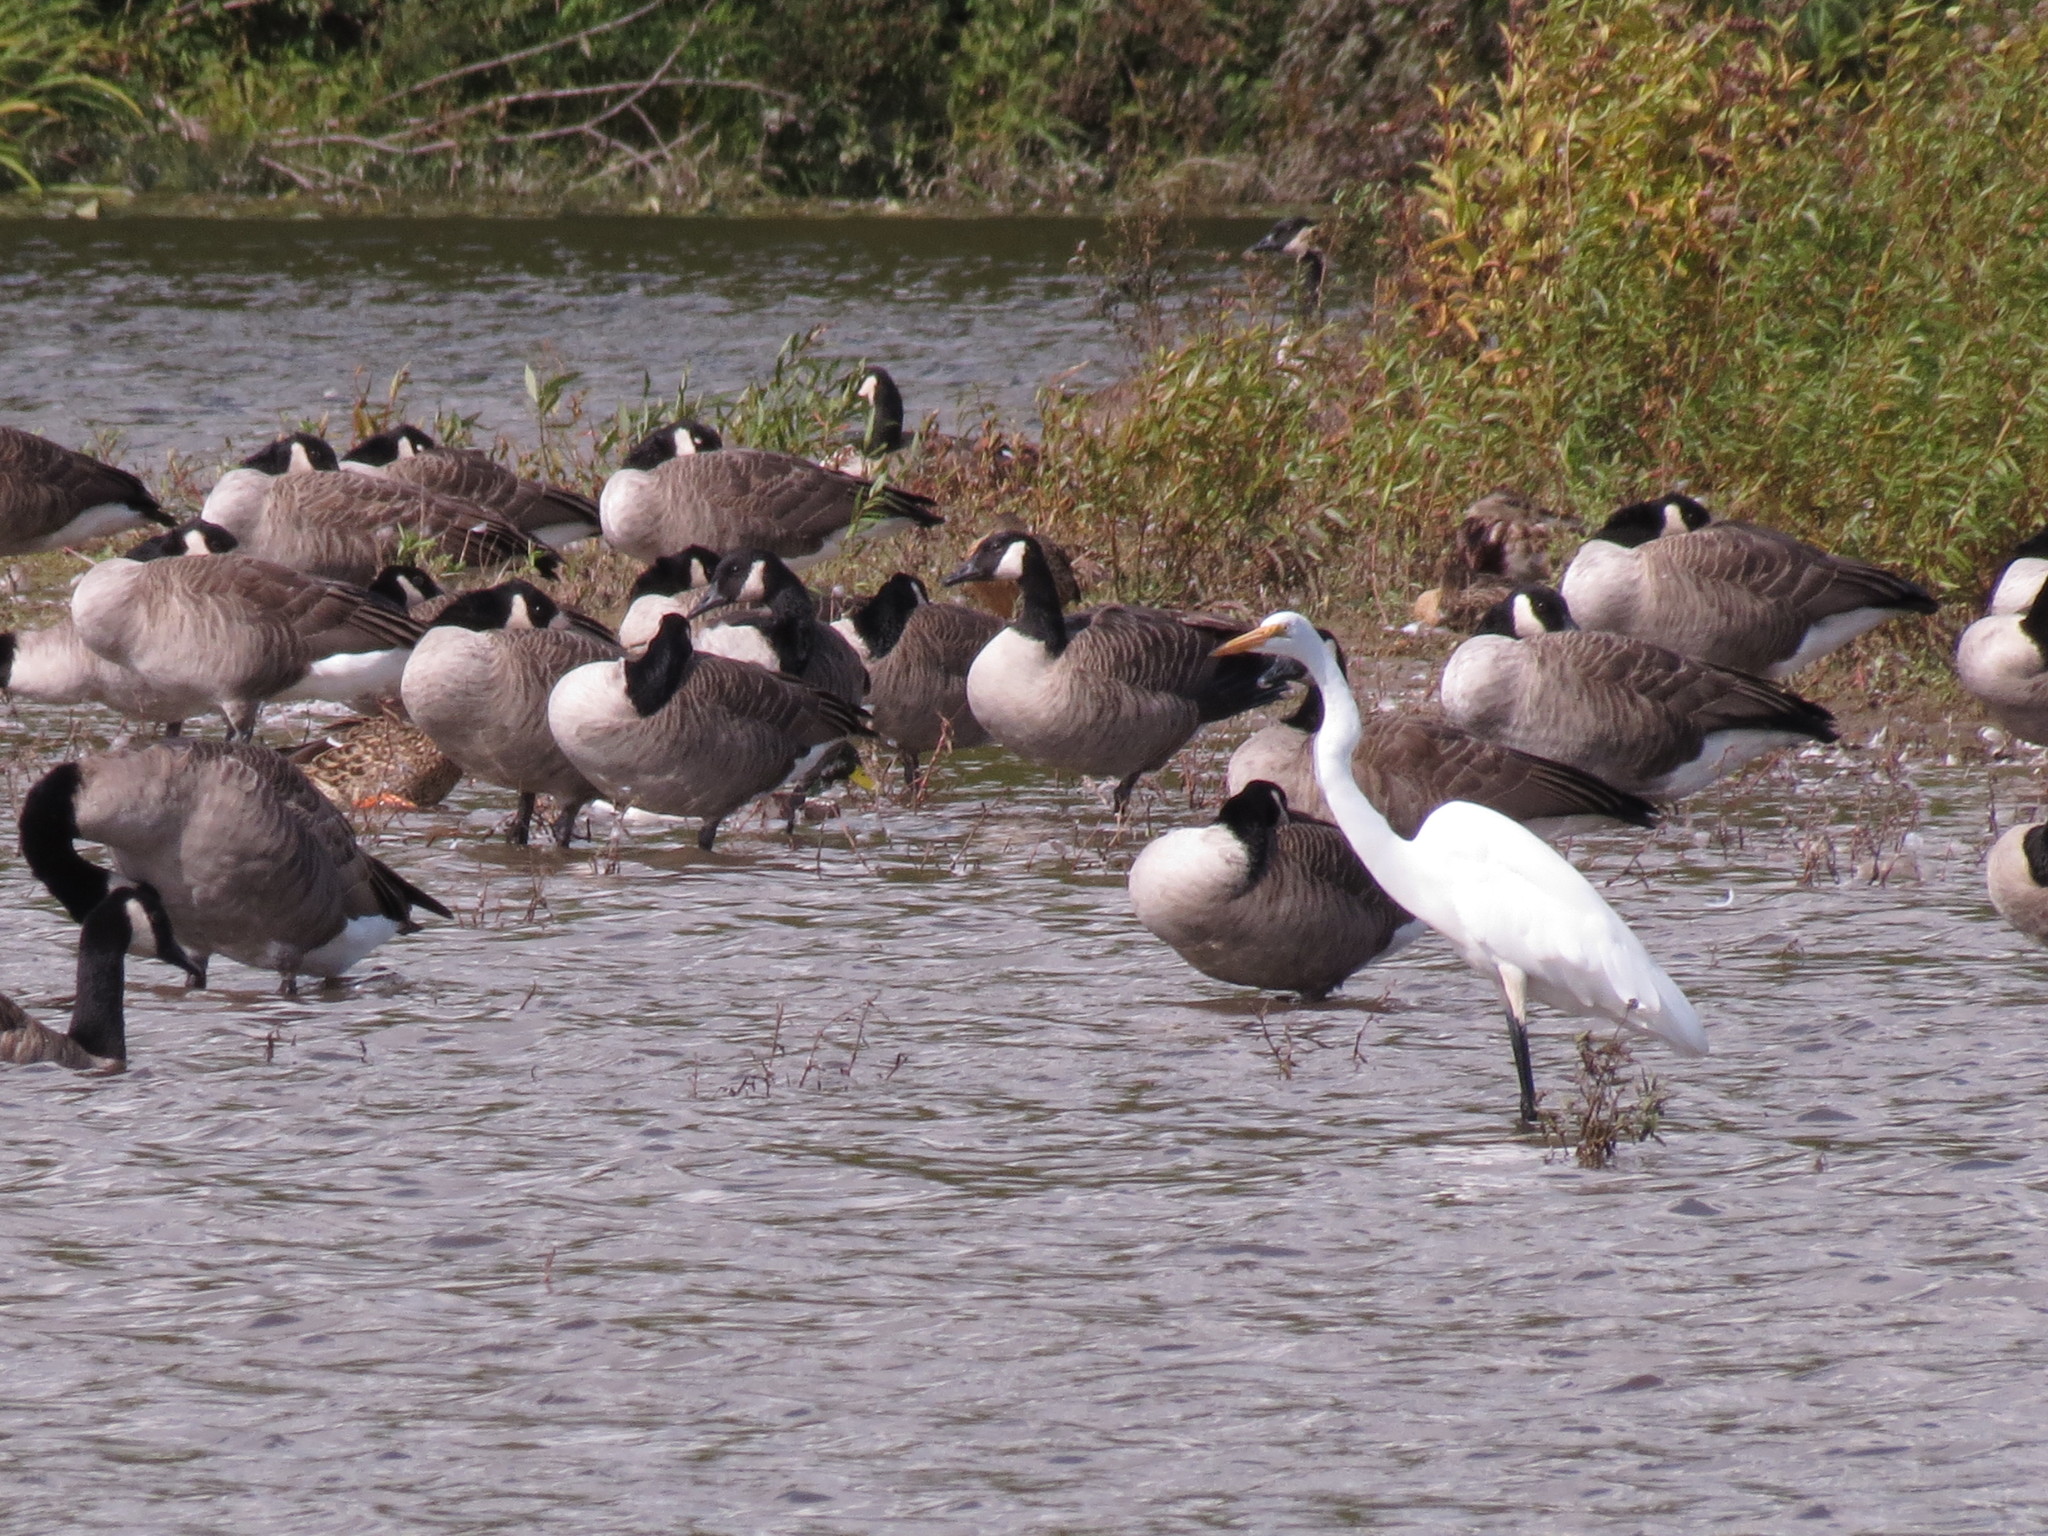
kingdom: Animalia
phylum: Chordata
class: Aves
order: Anseriformes
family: Anatidae
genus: Branta
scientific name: Branta canadensis
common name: Canada goose
